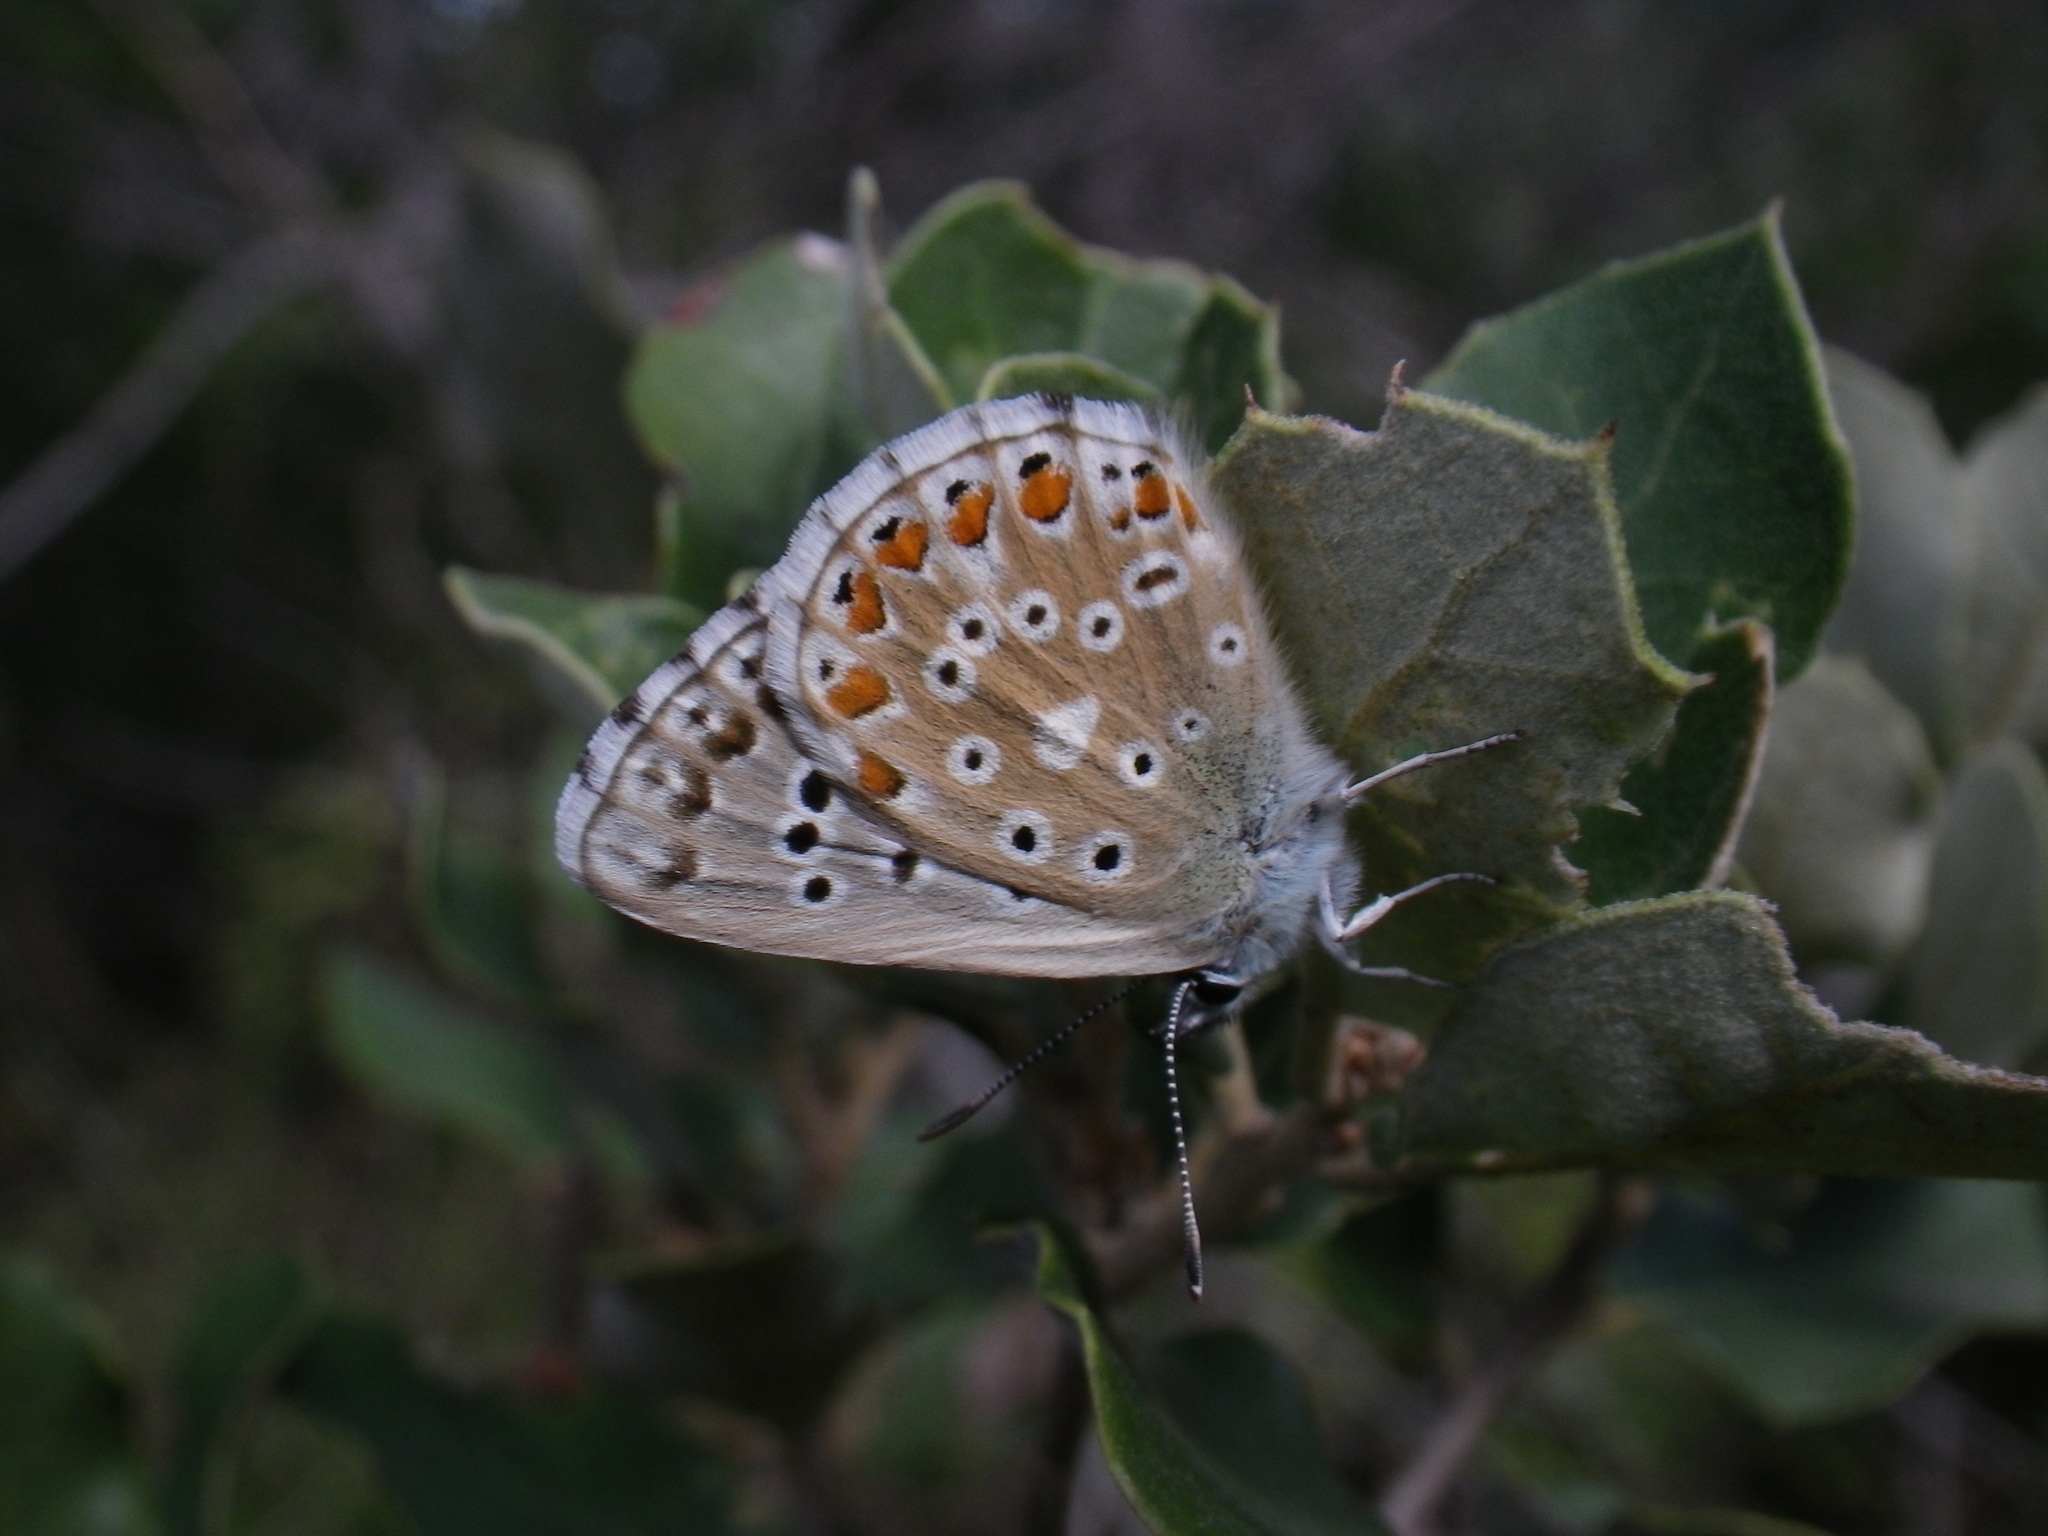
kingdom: Animalia
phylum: Arthropoda
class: Insecta
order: Lepidoptera
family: Lycaenidae
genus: Lysandra
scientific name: Lysandra bellargus
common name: Adonis blue
